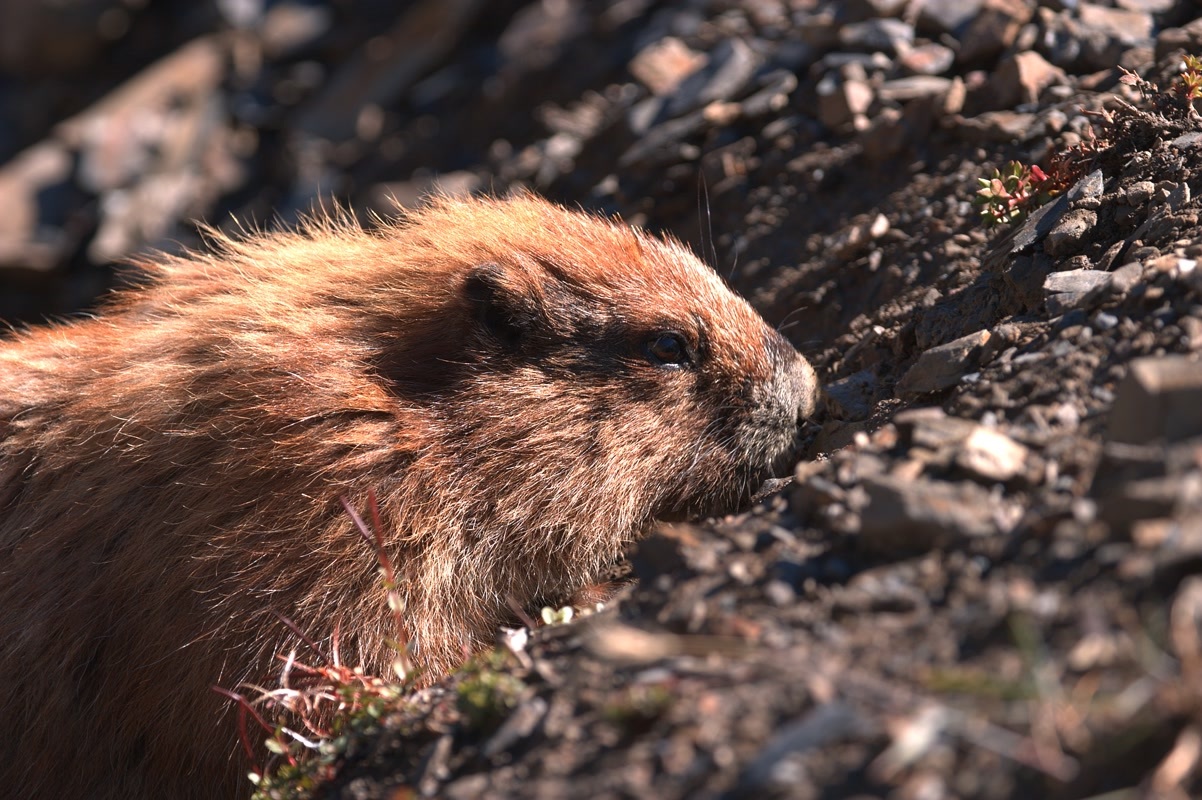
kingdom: Animalia
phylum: Chordata
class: Mammalia
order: Rodentia
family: Sciuridae
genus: Marmota
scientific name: Marmota olympus
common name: Olympic marmot
